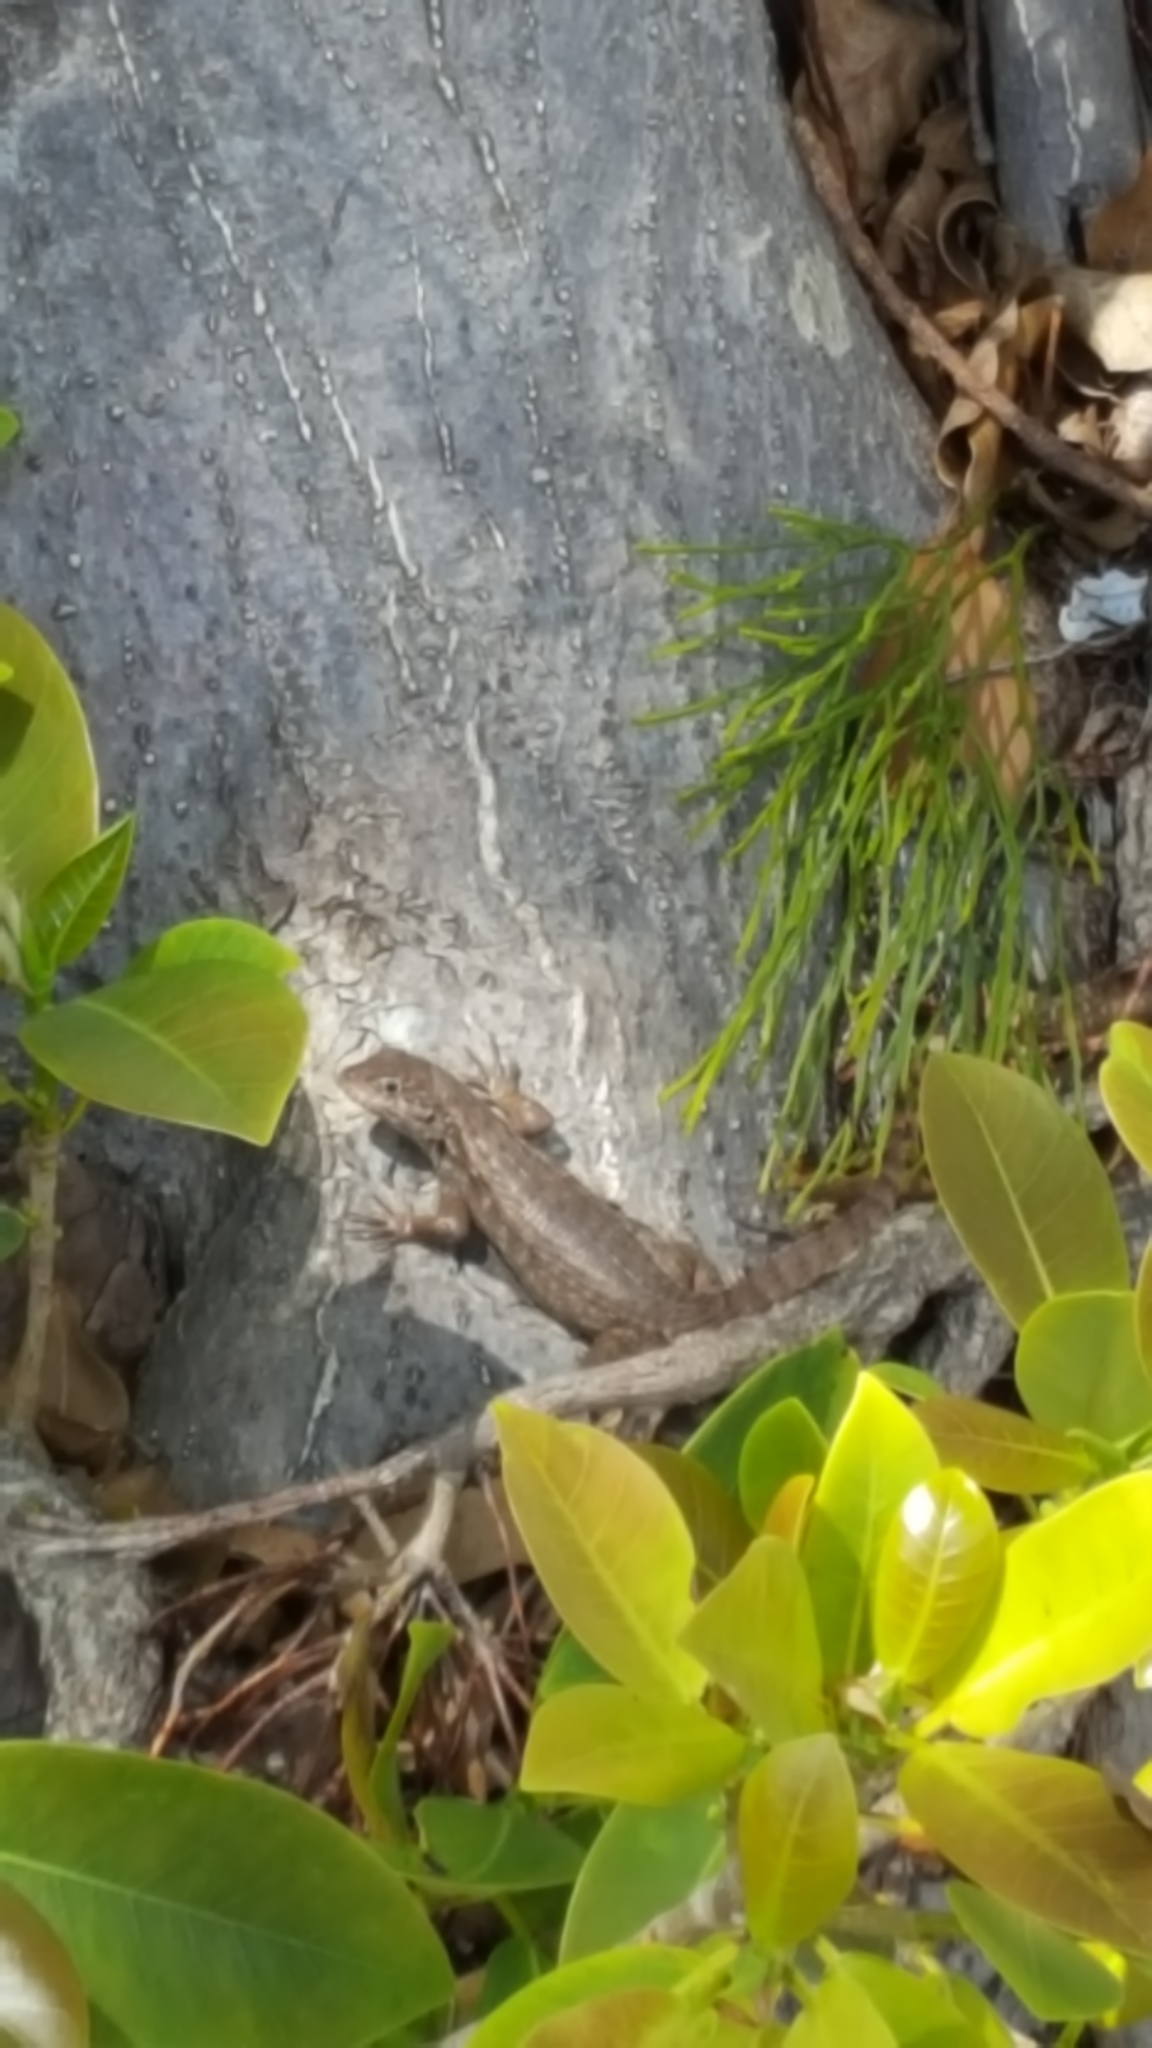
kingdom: Animalia
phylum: Chordata
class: Squamata
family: Leiocephalidae
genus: Leiocephalus
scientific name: Leiocephalus carinatus
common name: Northern curly-tailed lizard
